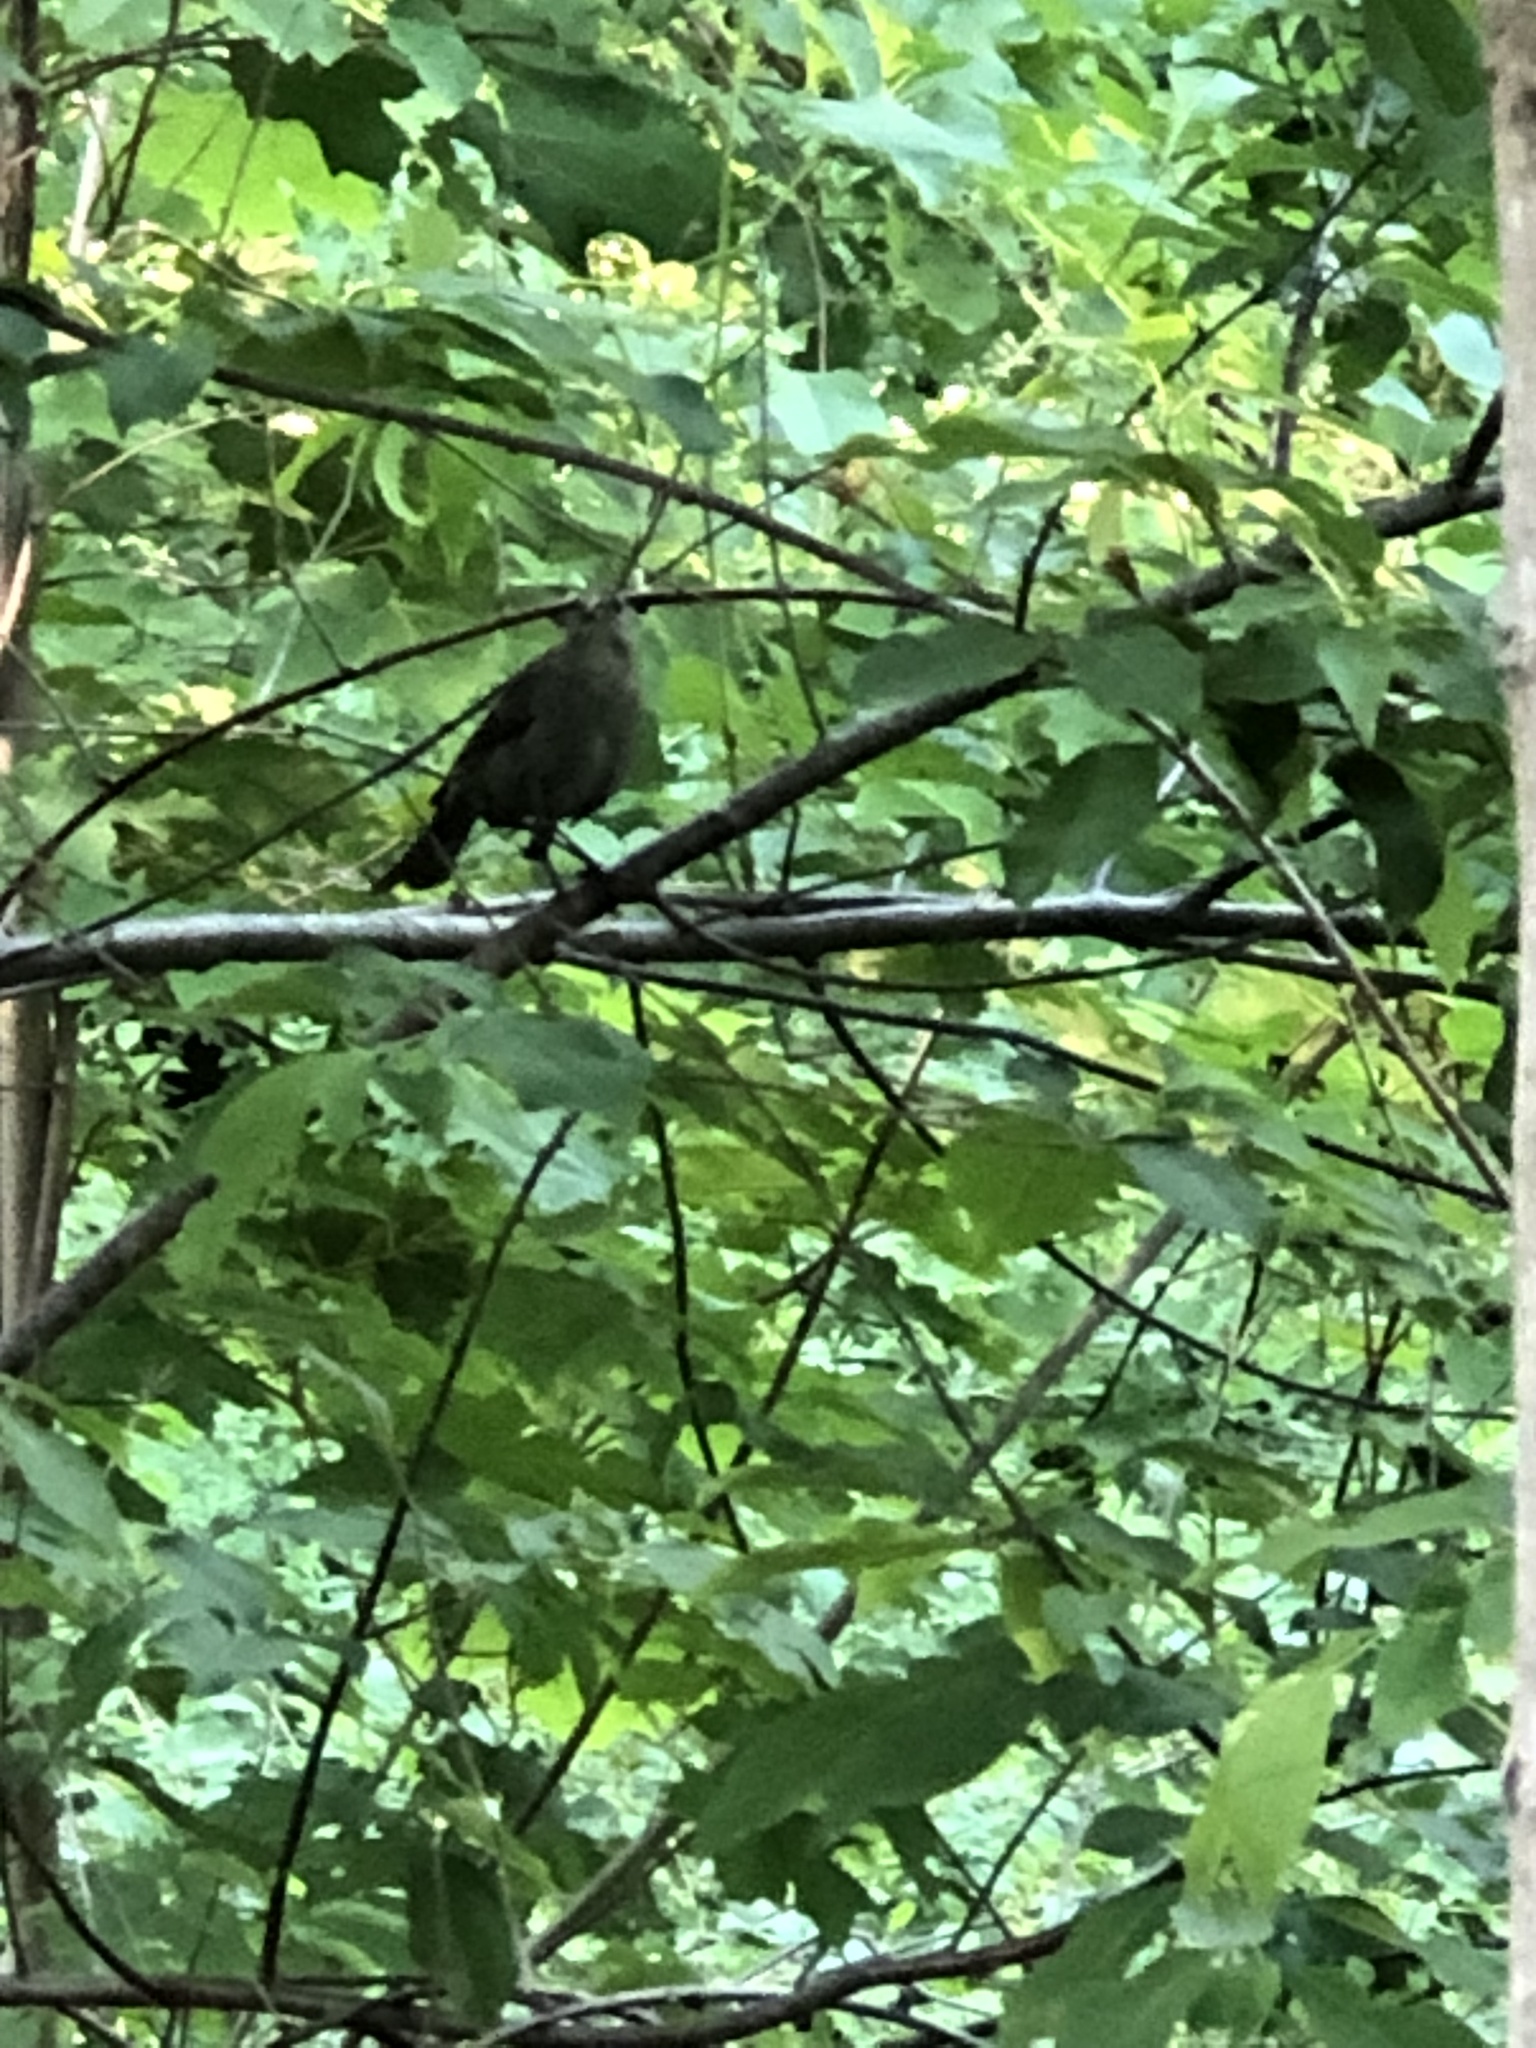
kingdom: Animalia
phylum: Chordata
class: Aves
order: Passeriformes
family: Icteridae
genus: Molothrus
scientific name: Molothrus ater
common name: Brown-headed cowbird
